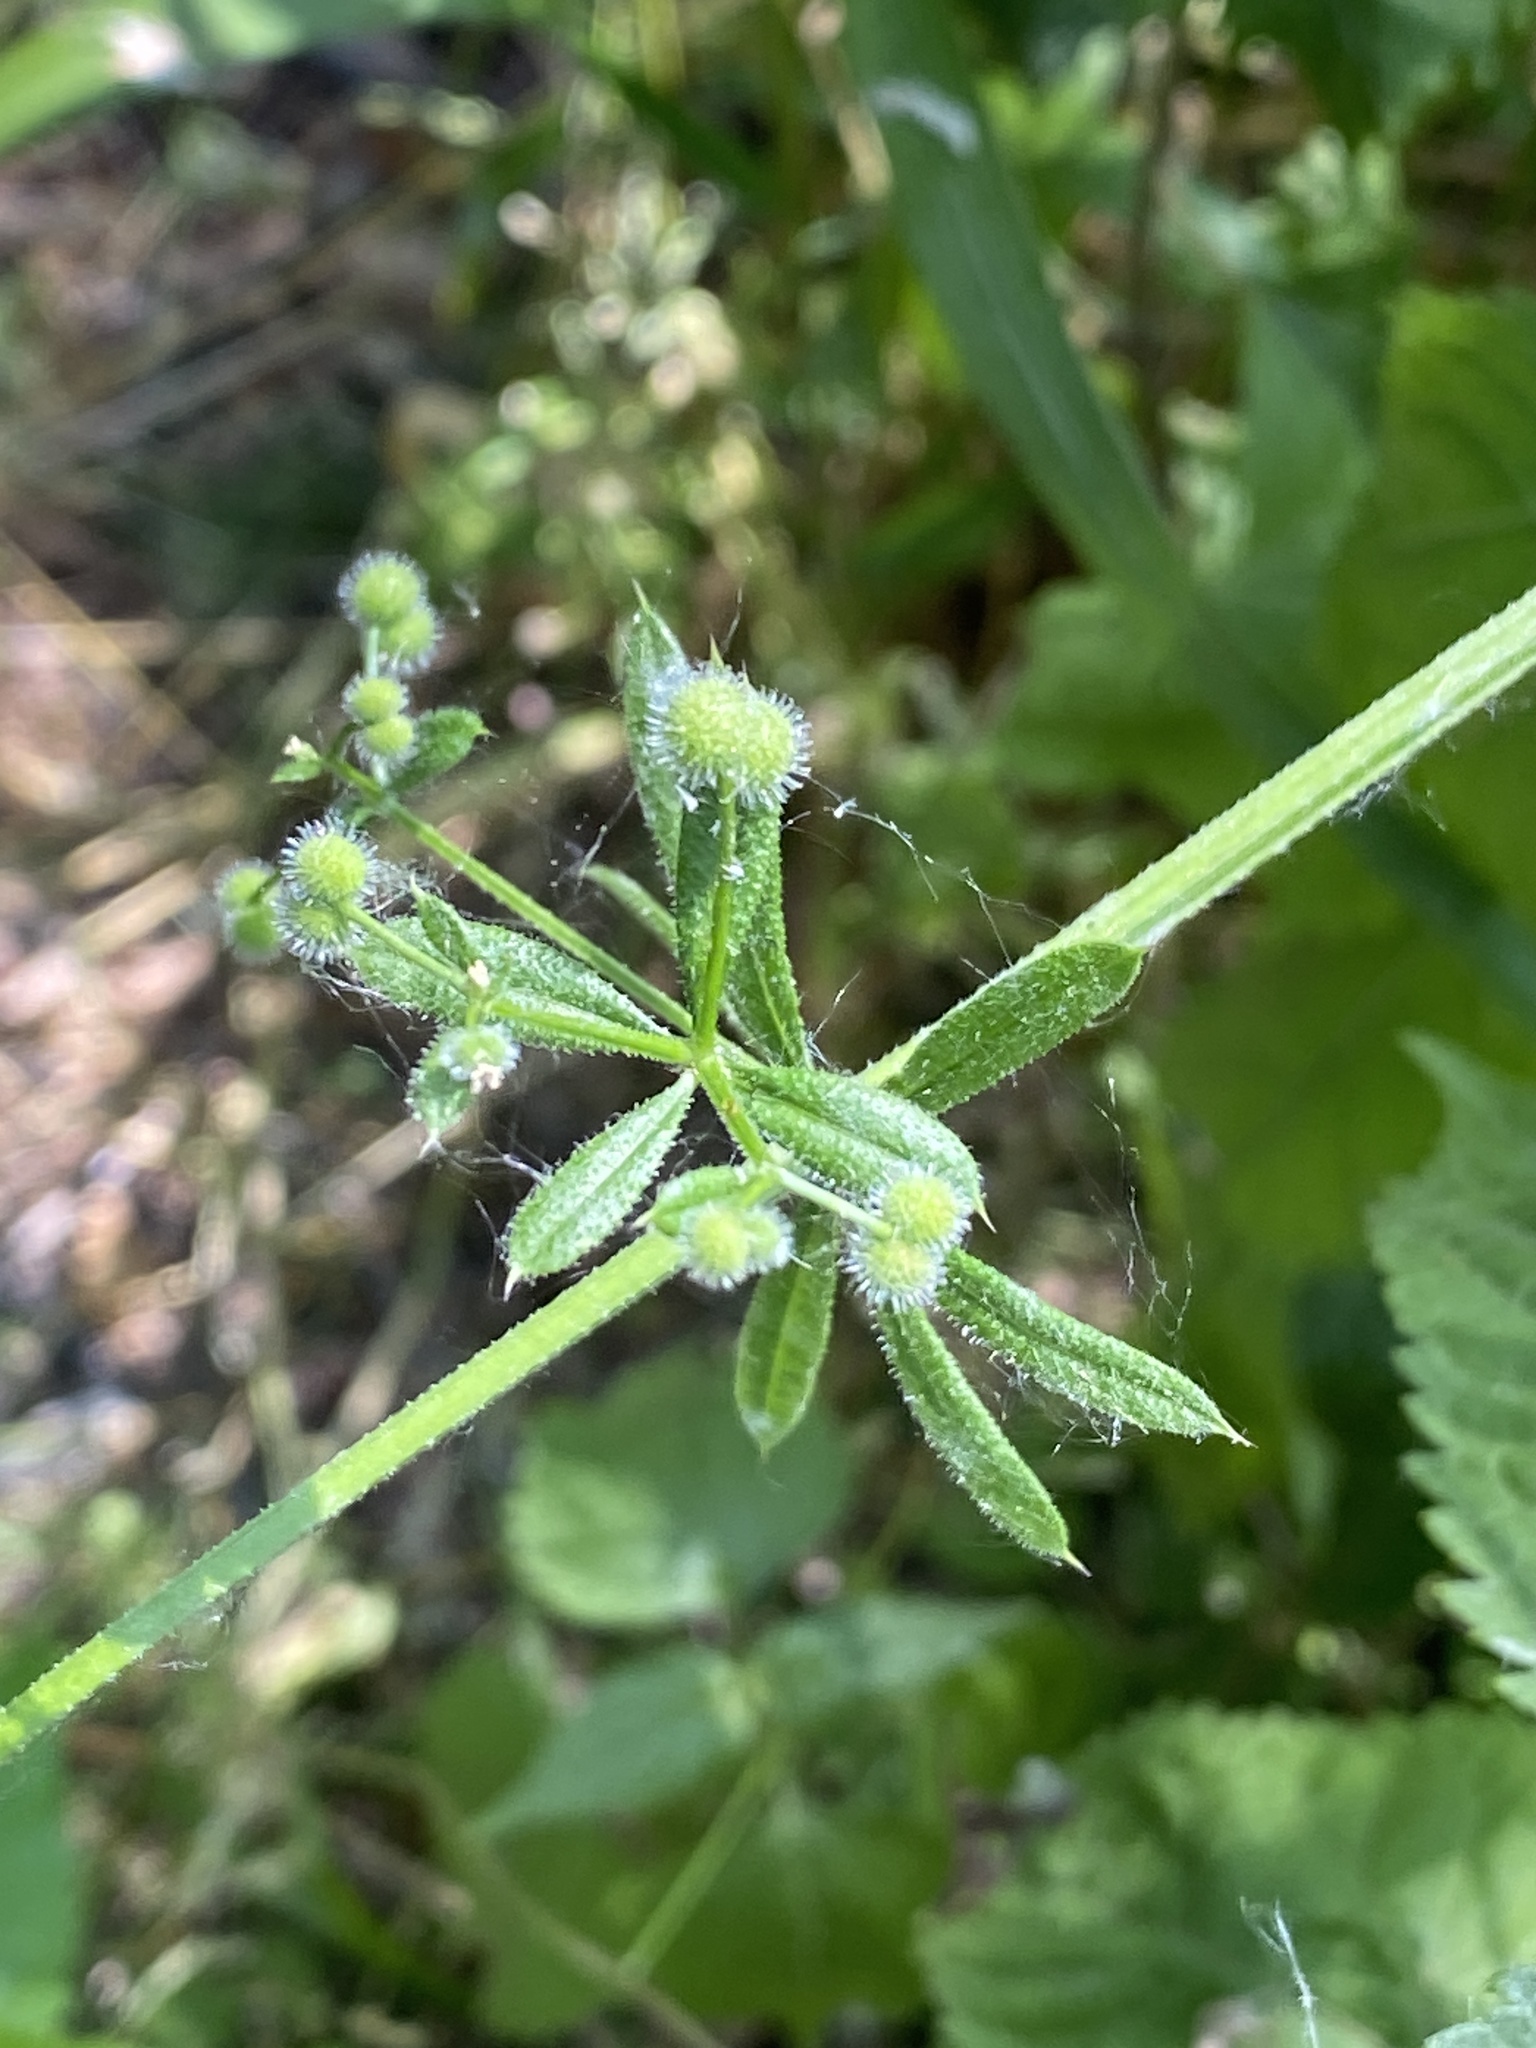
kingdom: Plantae
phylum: Tracheophyta
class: Magnoliopsida
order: Gentianales
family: Rubiaceae
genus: Galium
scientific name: Galium aparine
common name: Cleavers
